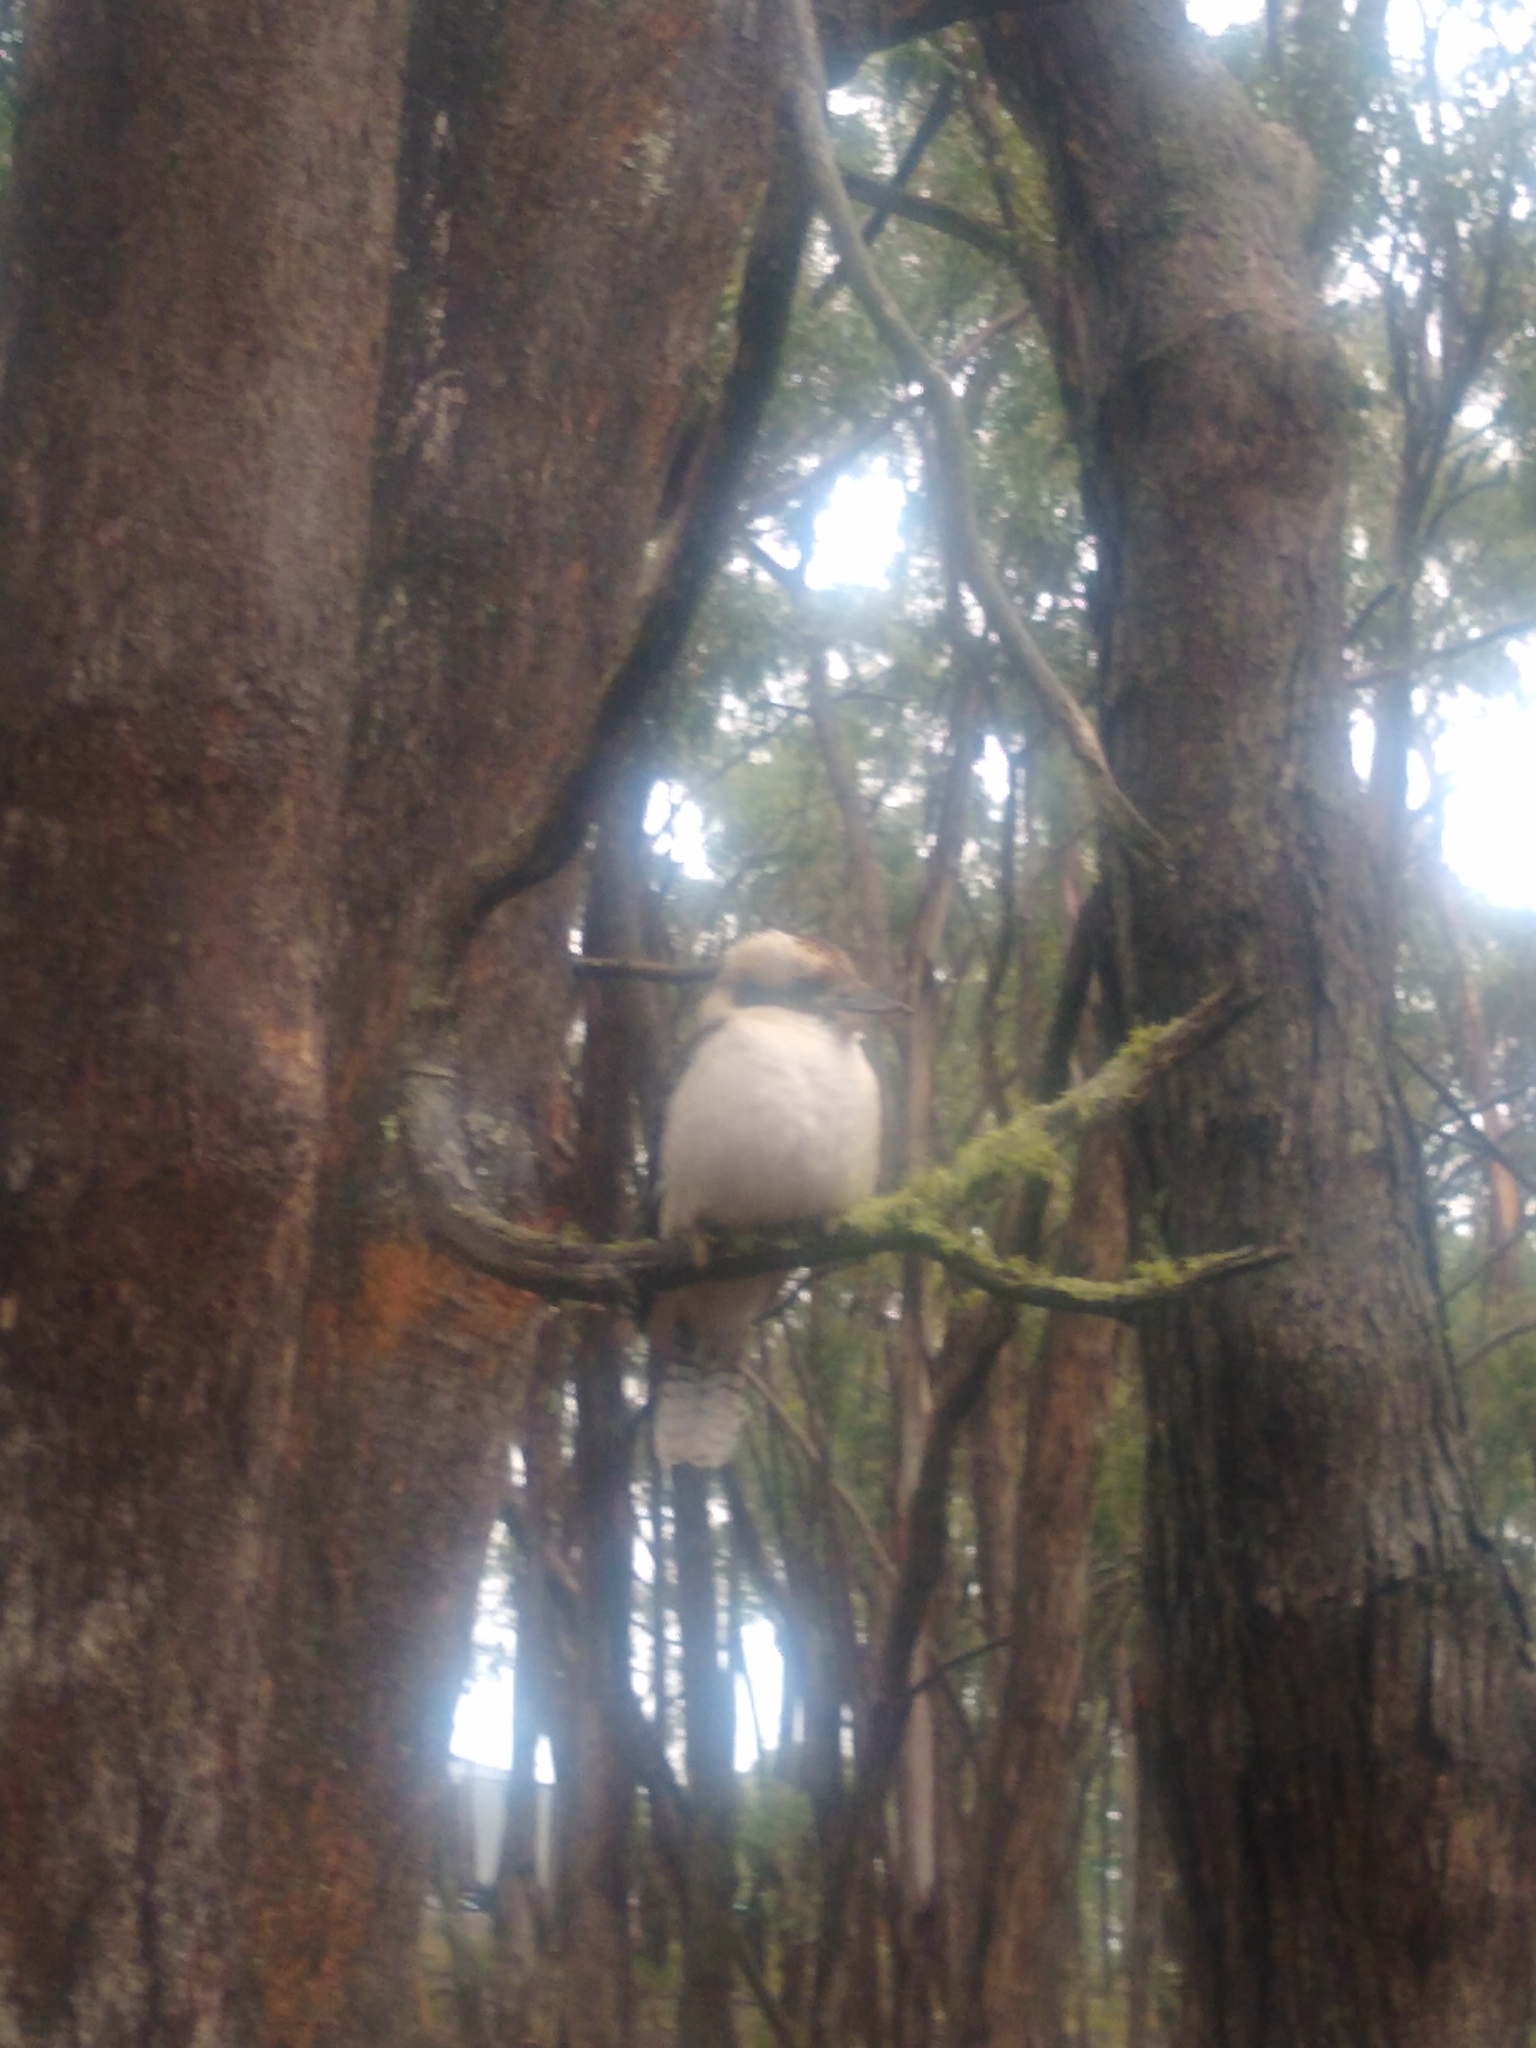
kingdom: Animalia
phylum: Chordata
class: Aves
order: Coraciiformes
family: Alcedinidae
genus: Dacelo
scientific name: Dacelo novaeguineae
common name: Laughing kookaburra
